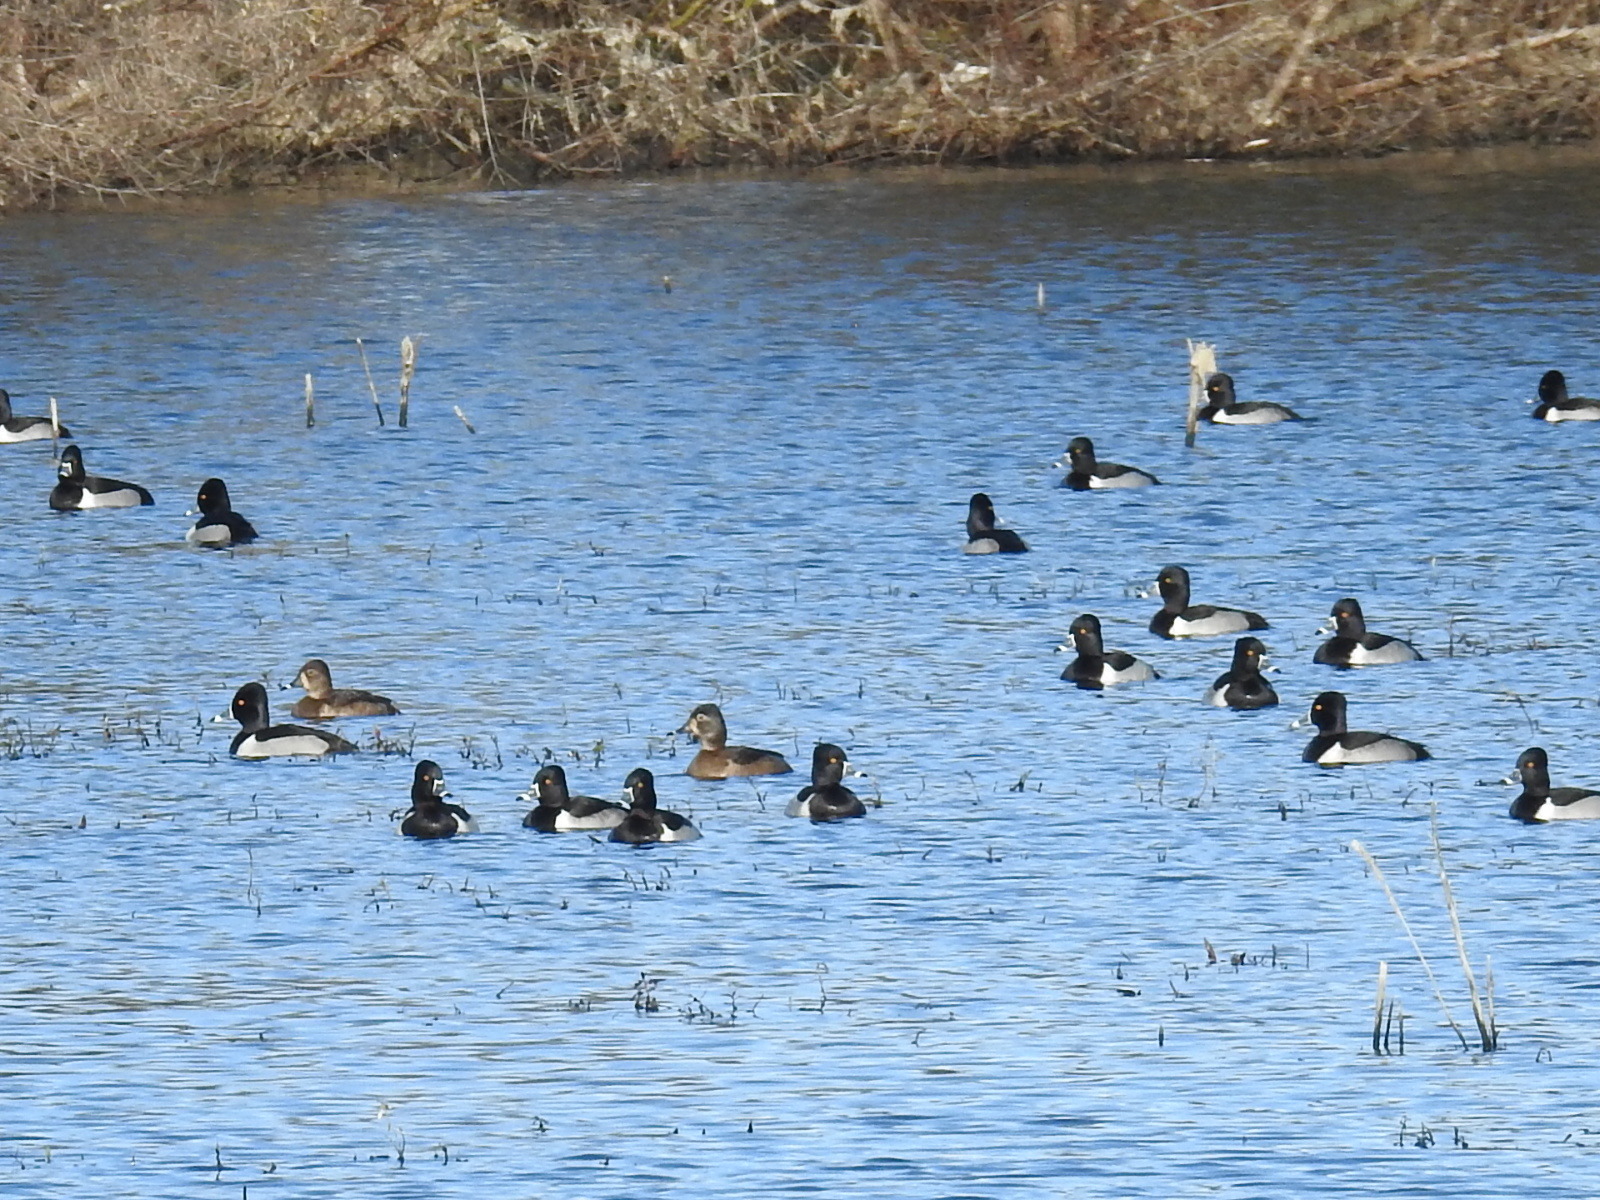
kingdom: Animalia
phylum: Chordata
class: Aves
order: Anseriformes
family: Anatidae
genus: Aythya
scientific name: Aythya collaris
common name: Ring-necked duck
